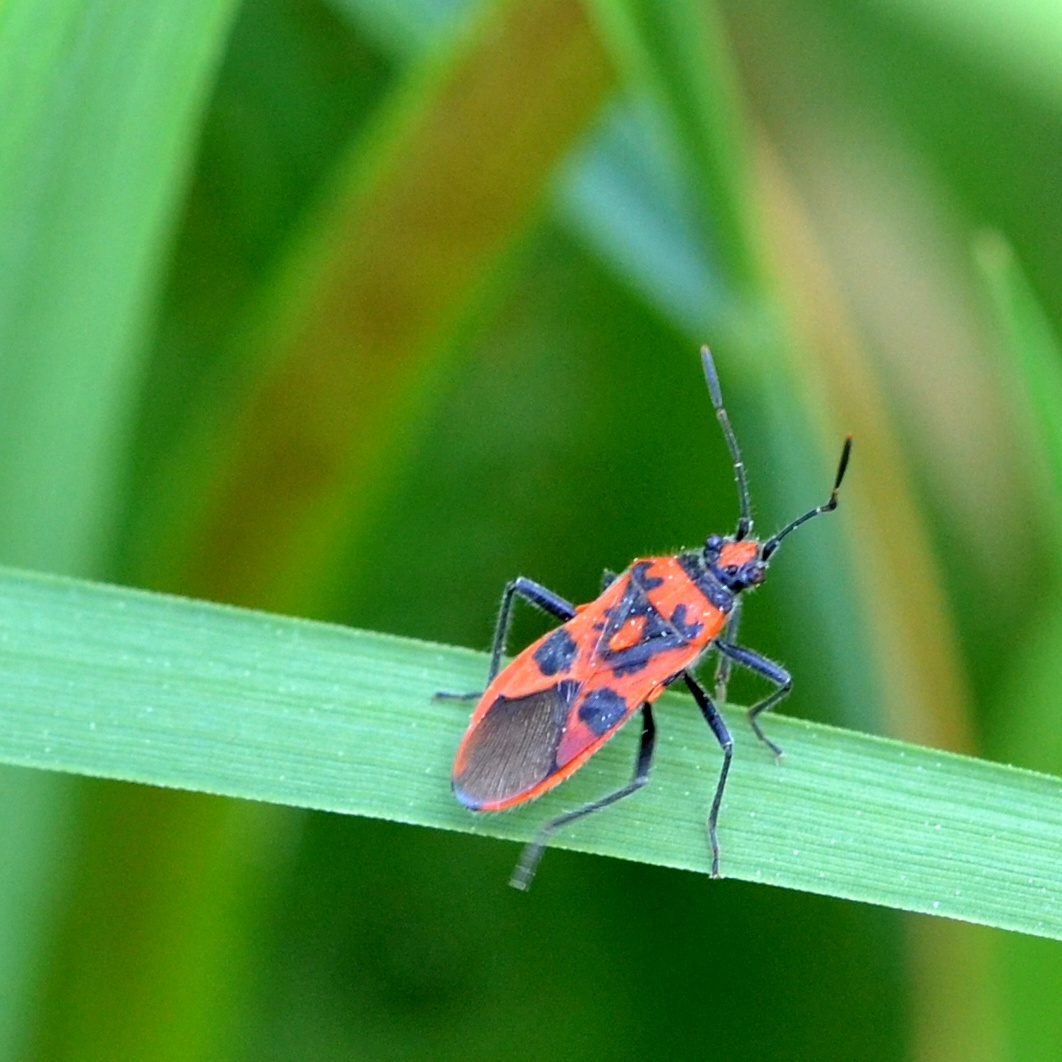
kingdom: Animalia
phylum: Arthropoda
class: Insecta
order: Hemiptera
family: Rhopalidae
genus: Corizus
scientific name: Corizus hyoscyami
